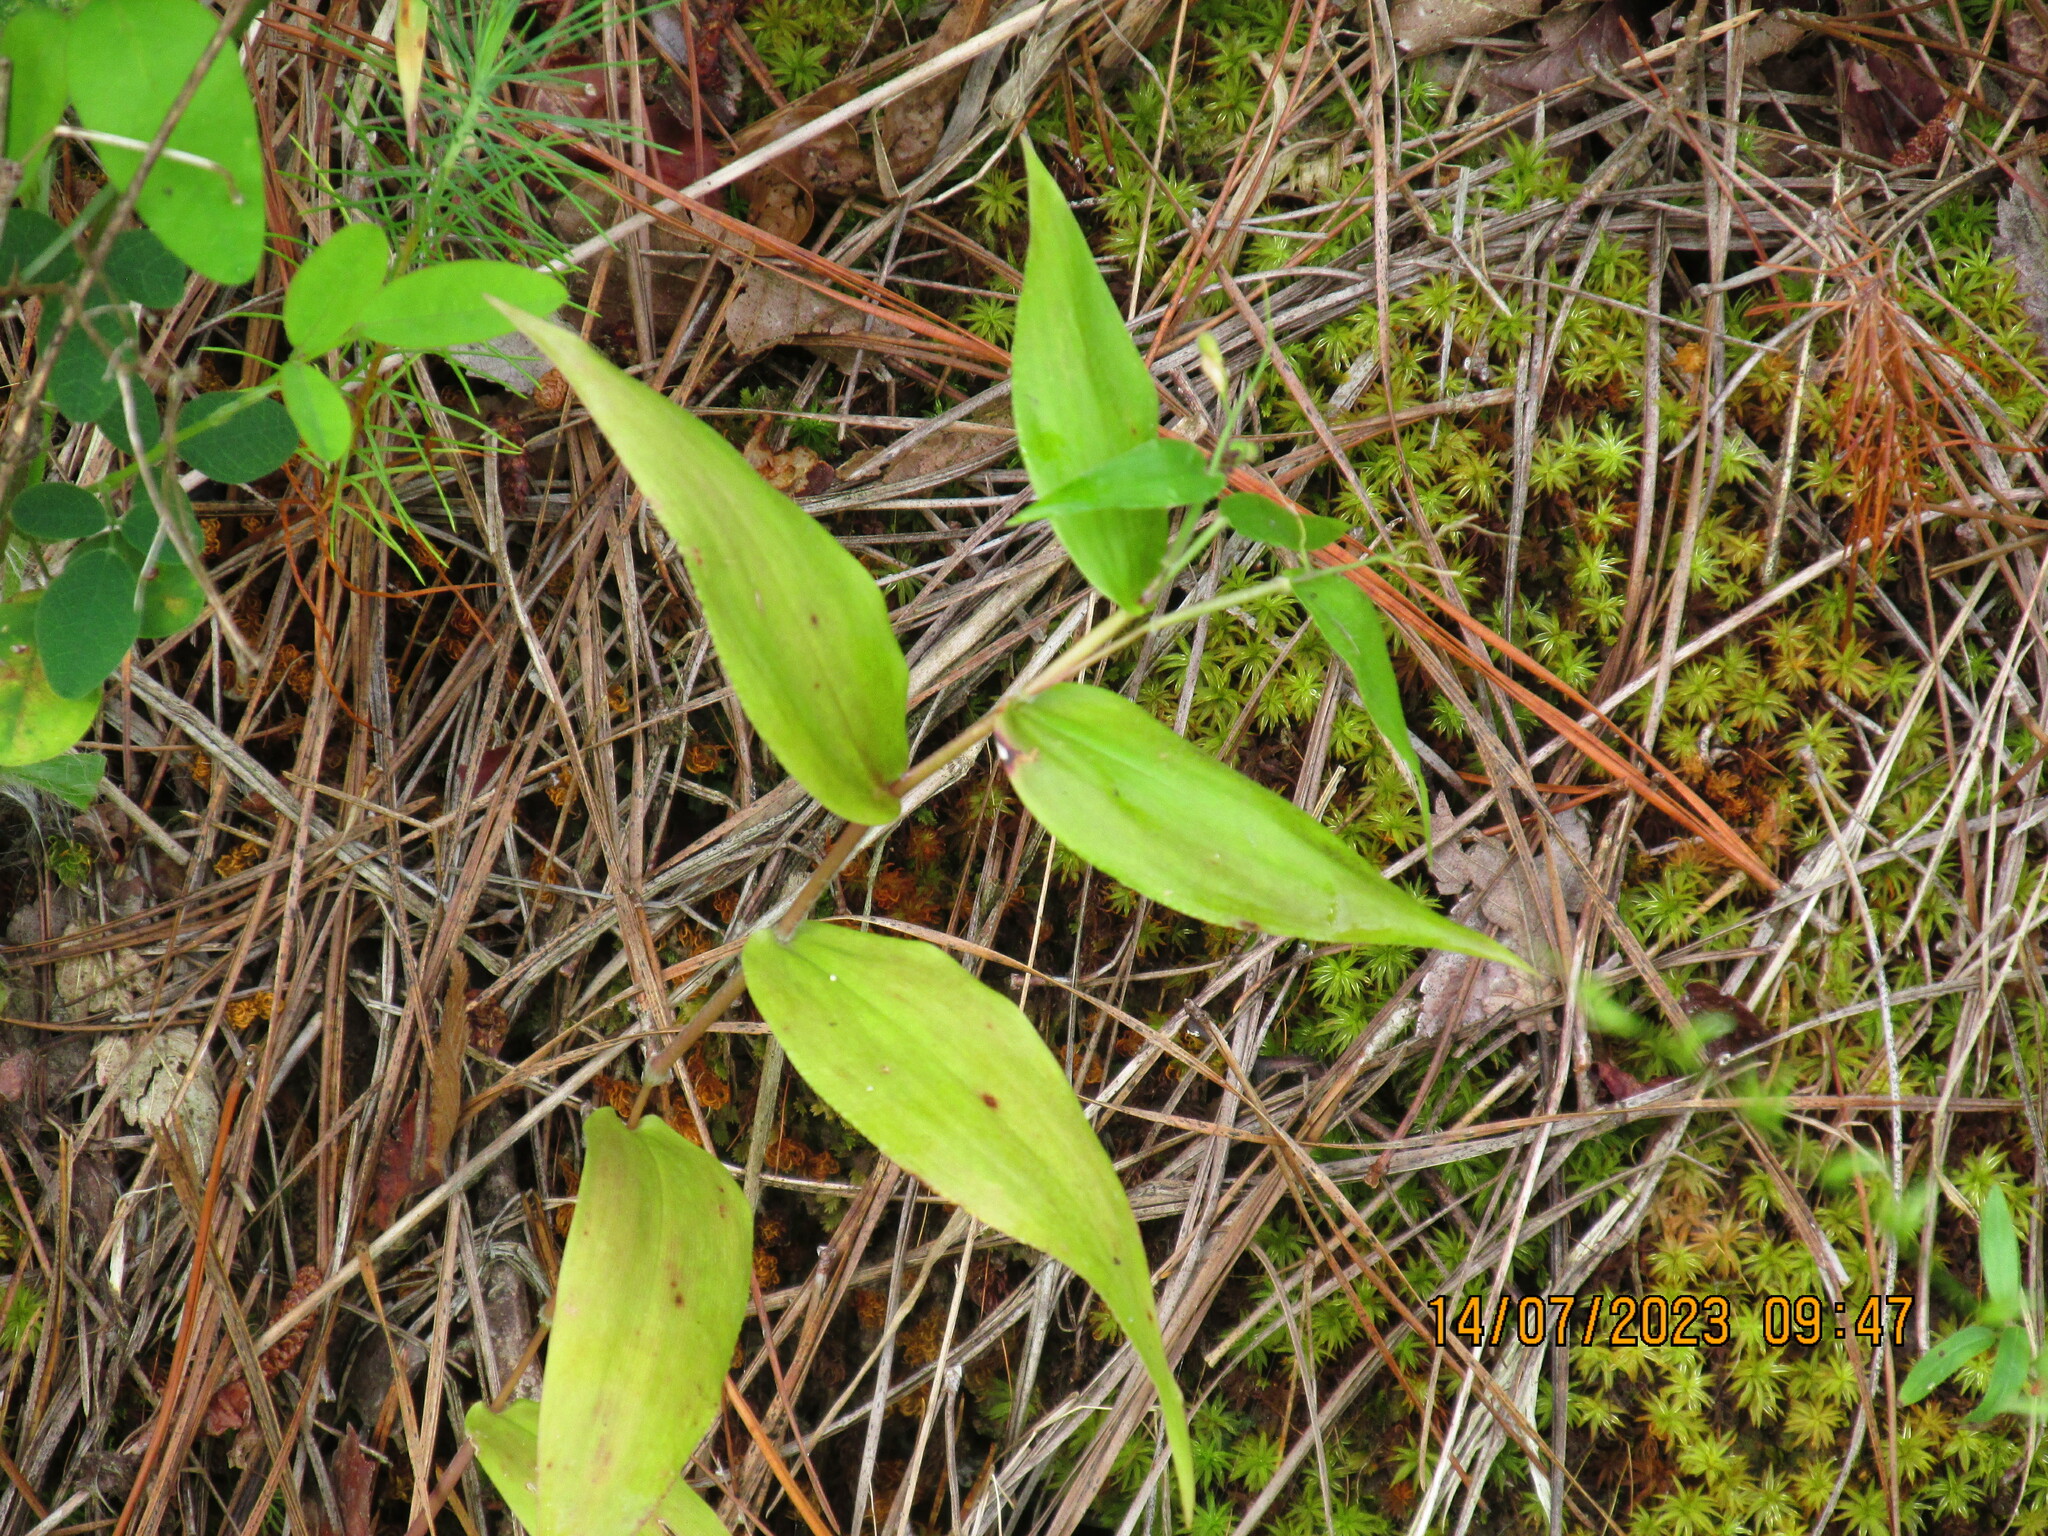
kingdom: Plantae
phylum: Tracheophyta
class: Liliopsida
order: Poales
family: Poaceae
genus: Dichanthelium
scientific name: Dichanthelium boscii
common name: Bosc's panic grass
